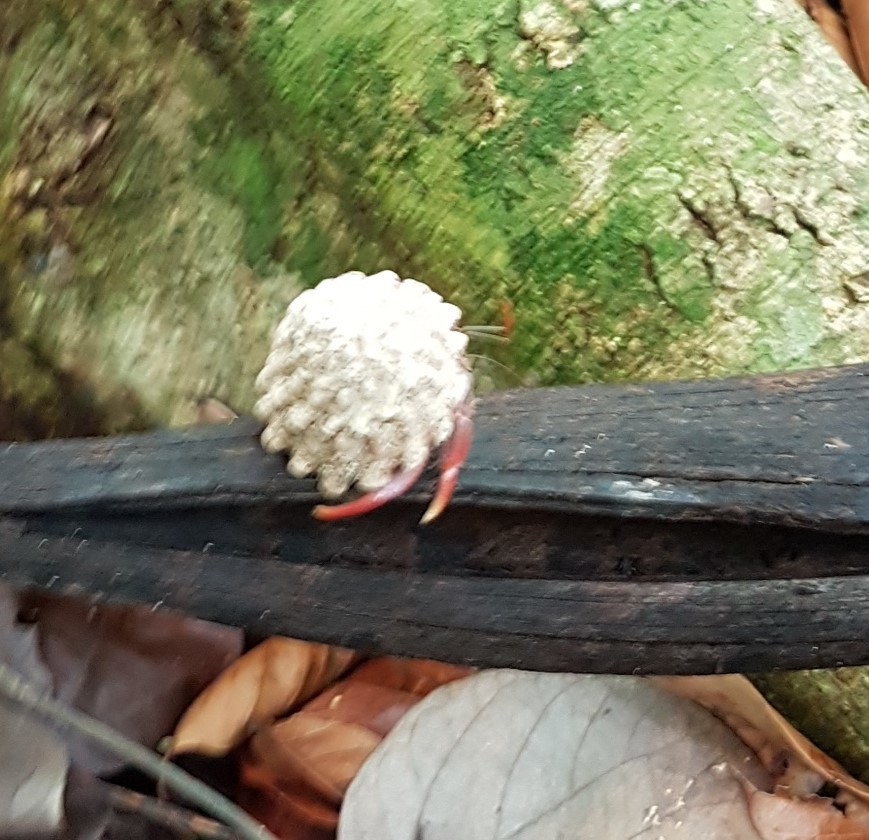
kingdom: Animalia
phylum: Mollusca
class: Gastropoda
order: Trochida
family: Turbinidae
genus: Lithopoma
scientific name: Lithopoma tectum
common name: West indian starsnail
